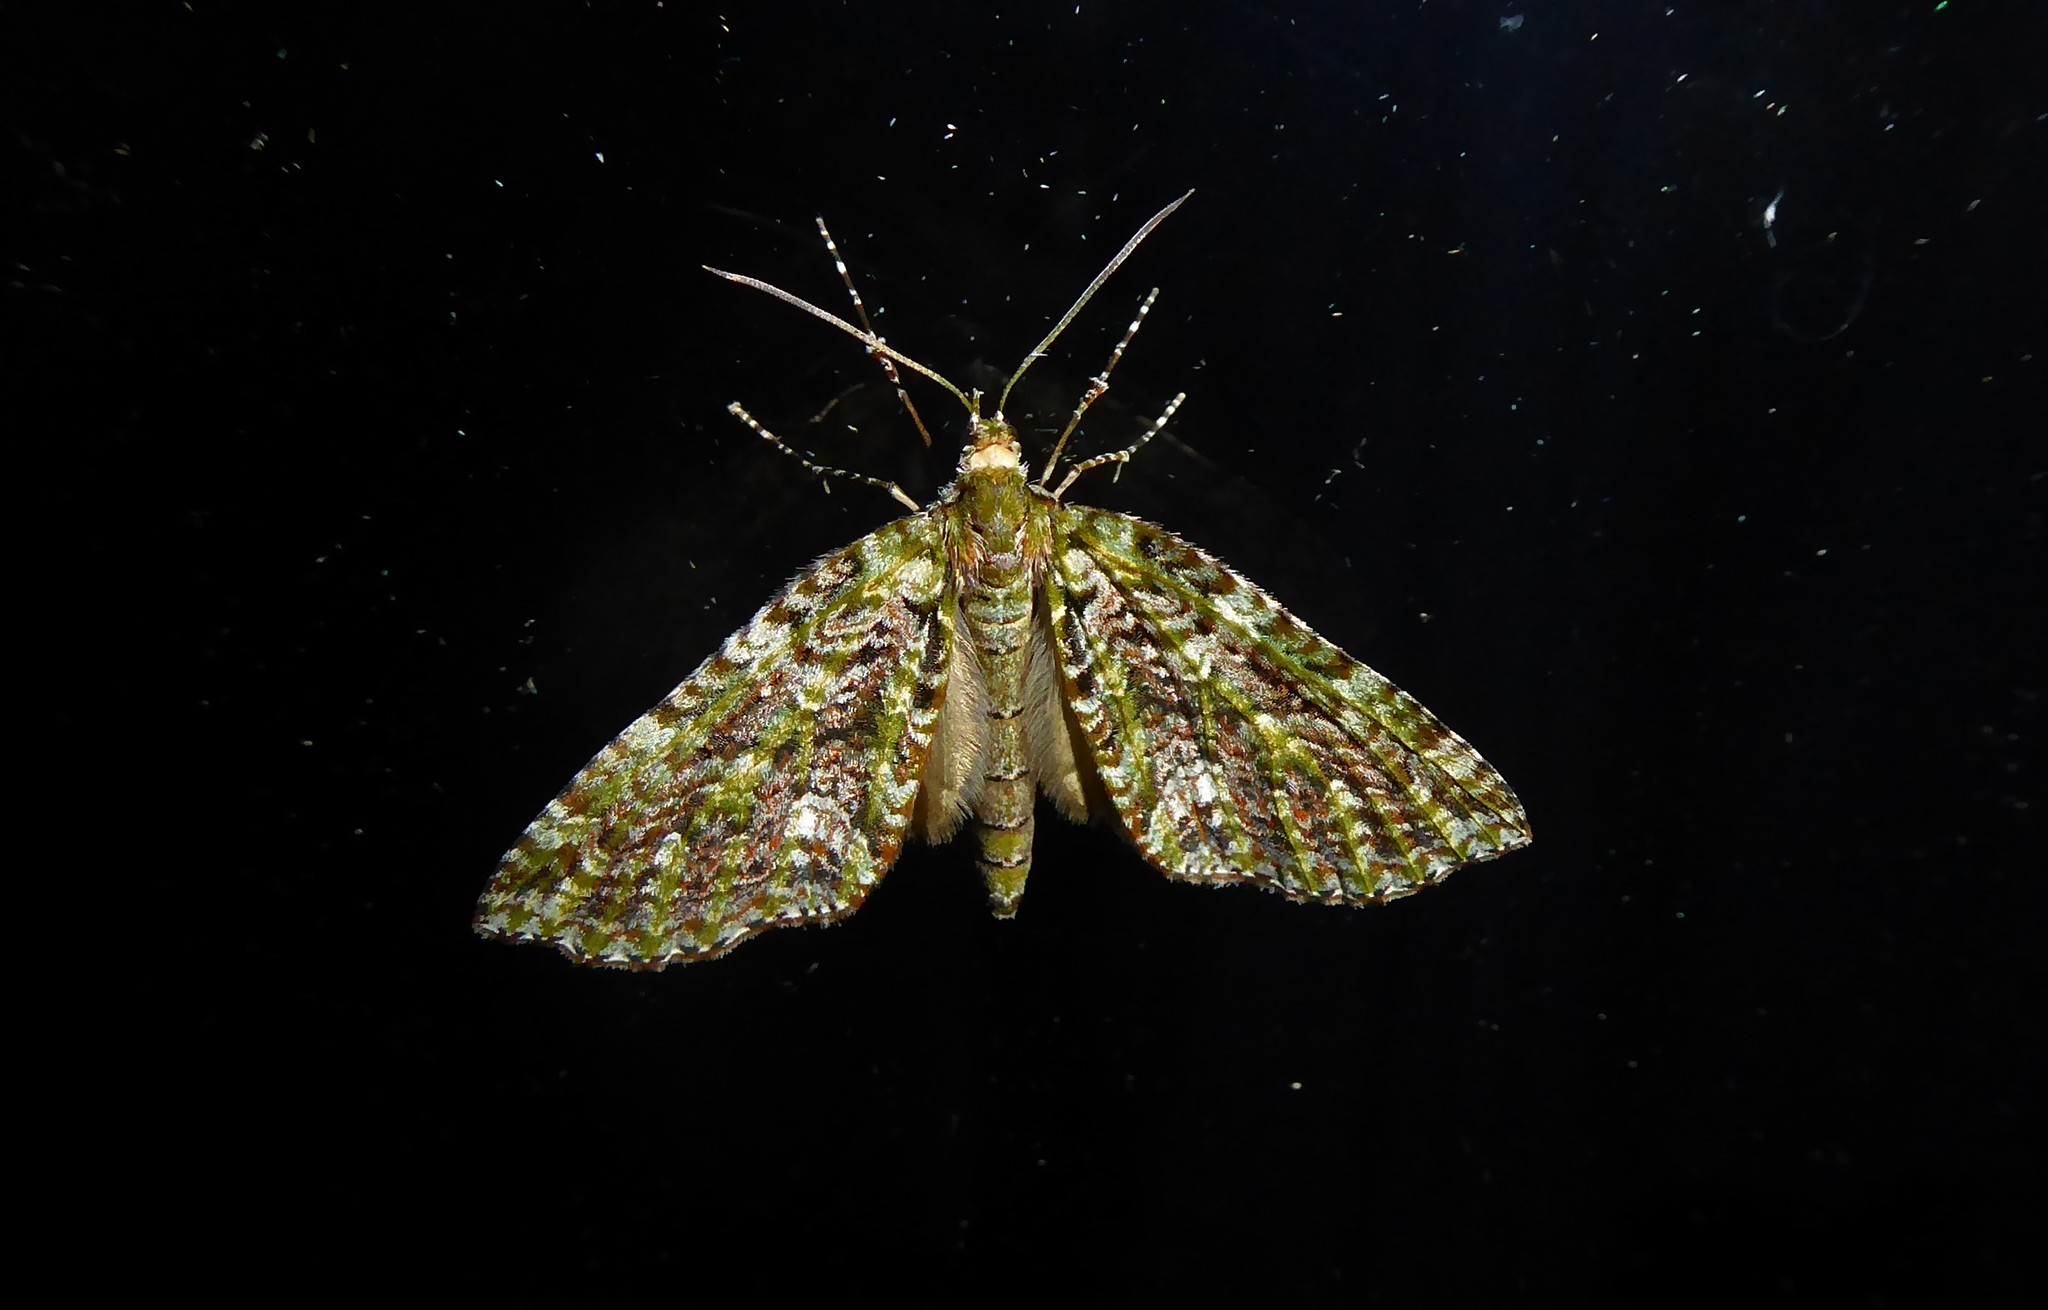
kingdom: Animalia
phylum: Arthropoda
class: Insecta
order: Lepidoptera
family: Geometridae
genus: Tatosoma
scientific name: Tatosoma agrionata
